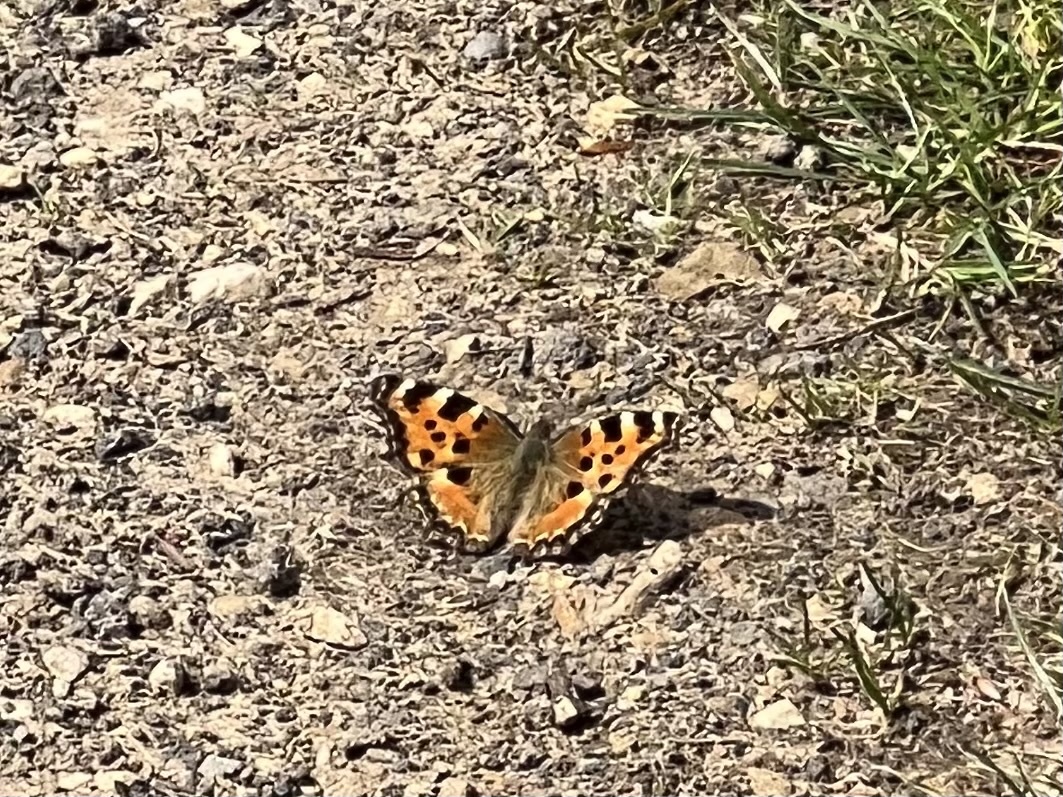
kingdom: Animalia
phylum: Arthropoda
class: Insecta
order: Lepidoptera
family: Nymphalidae
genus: Nymphalis
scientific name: Nymphalis polychloros
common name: Large tortoiseshell
